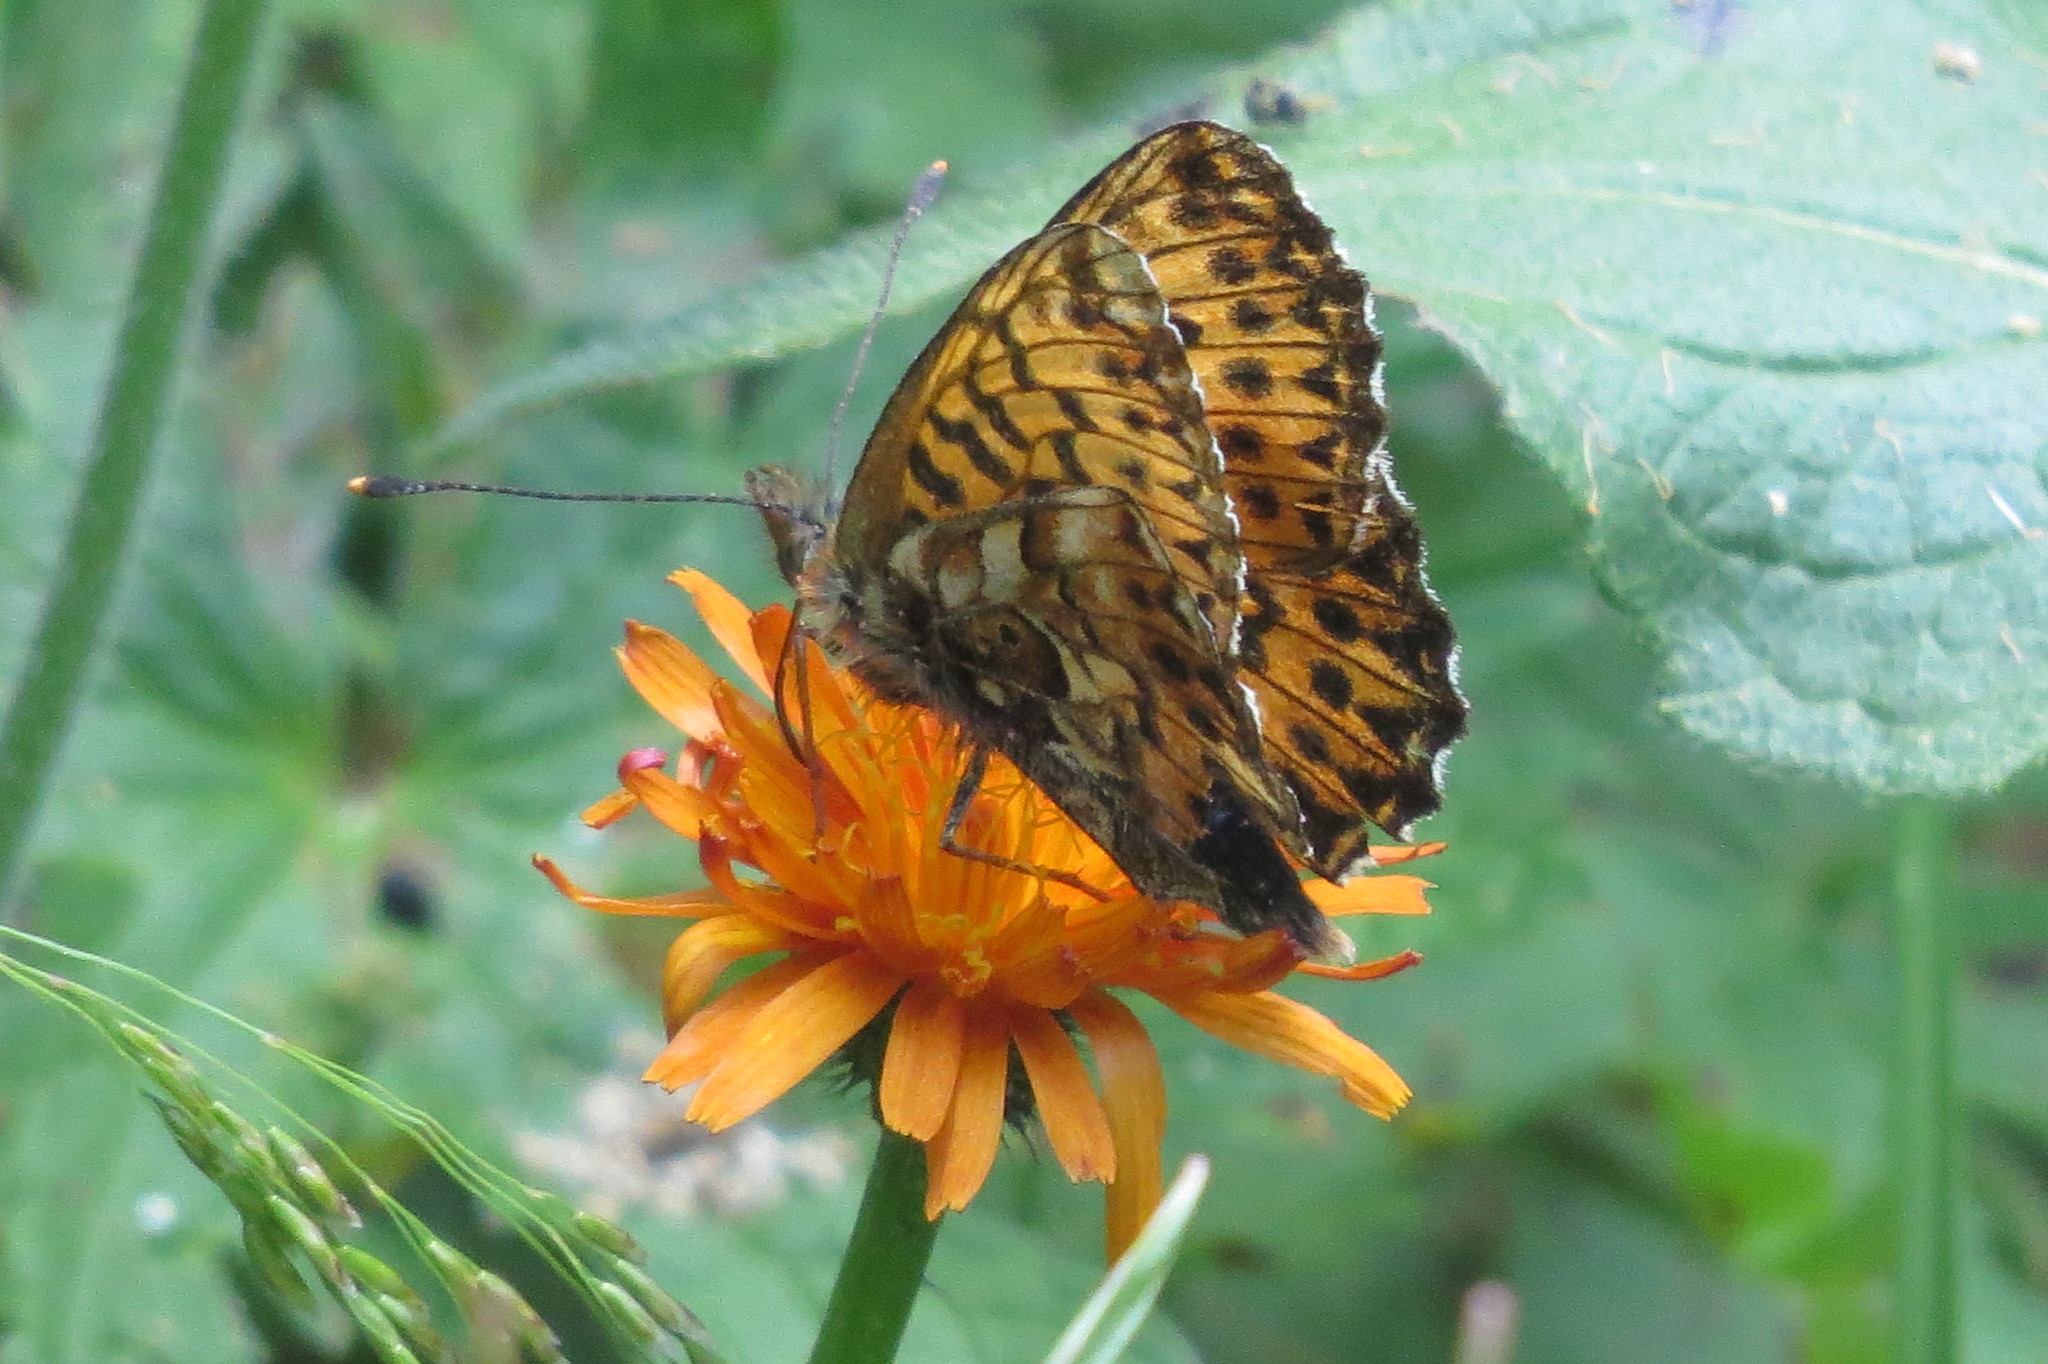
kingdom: Animalia
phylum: Arthropoda
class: Insecta
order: Lepidoptera
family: Nymphalidae
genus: Boloria
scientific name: Boloria titania
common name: Titania's fritillary
